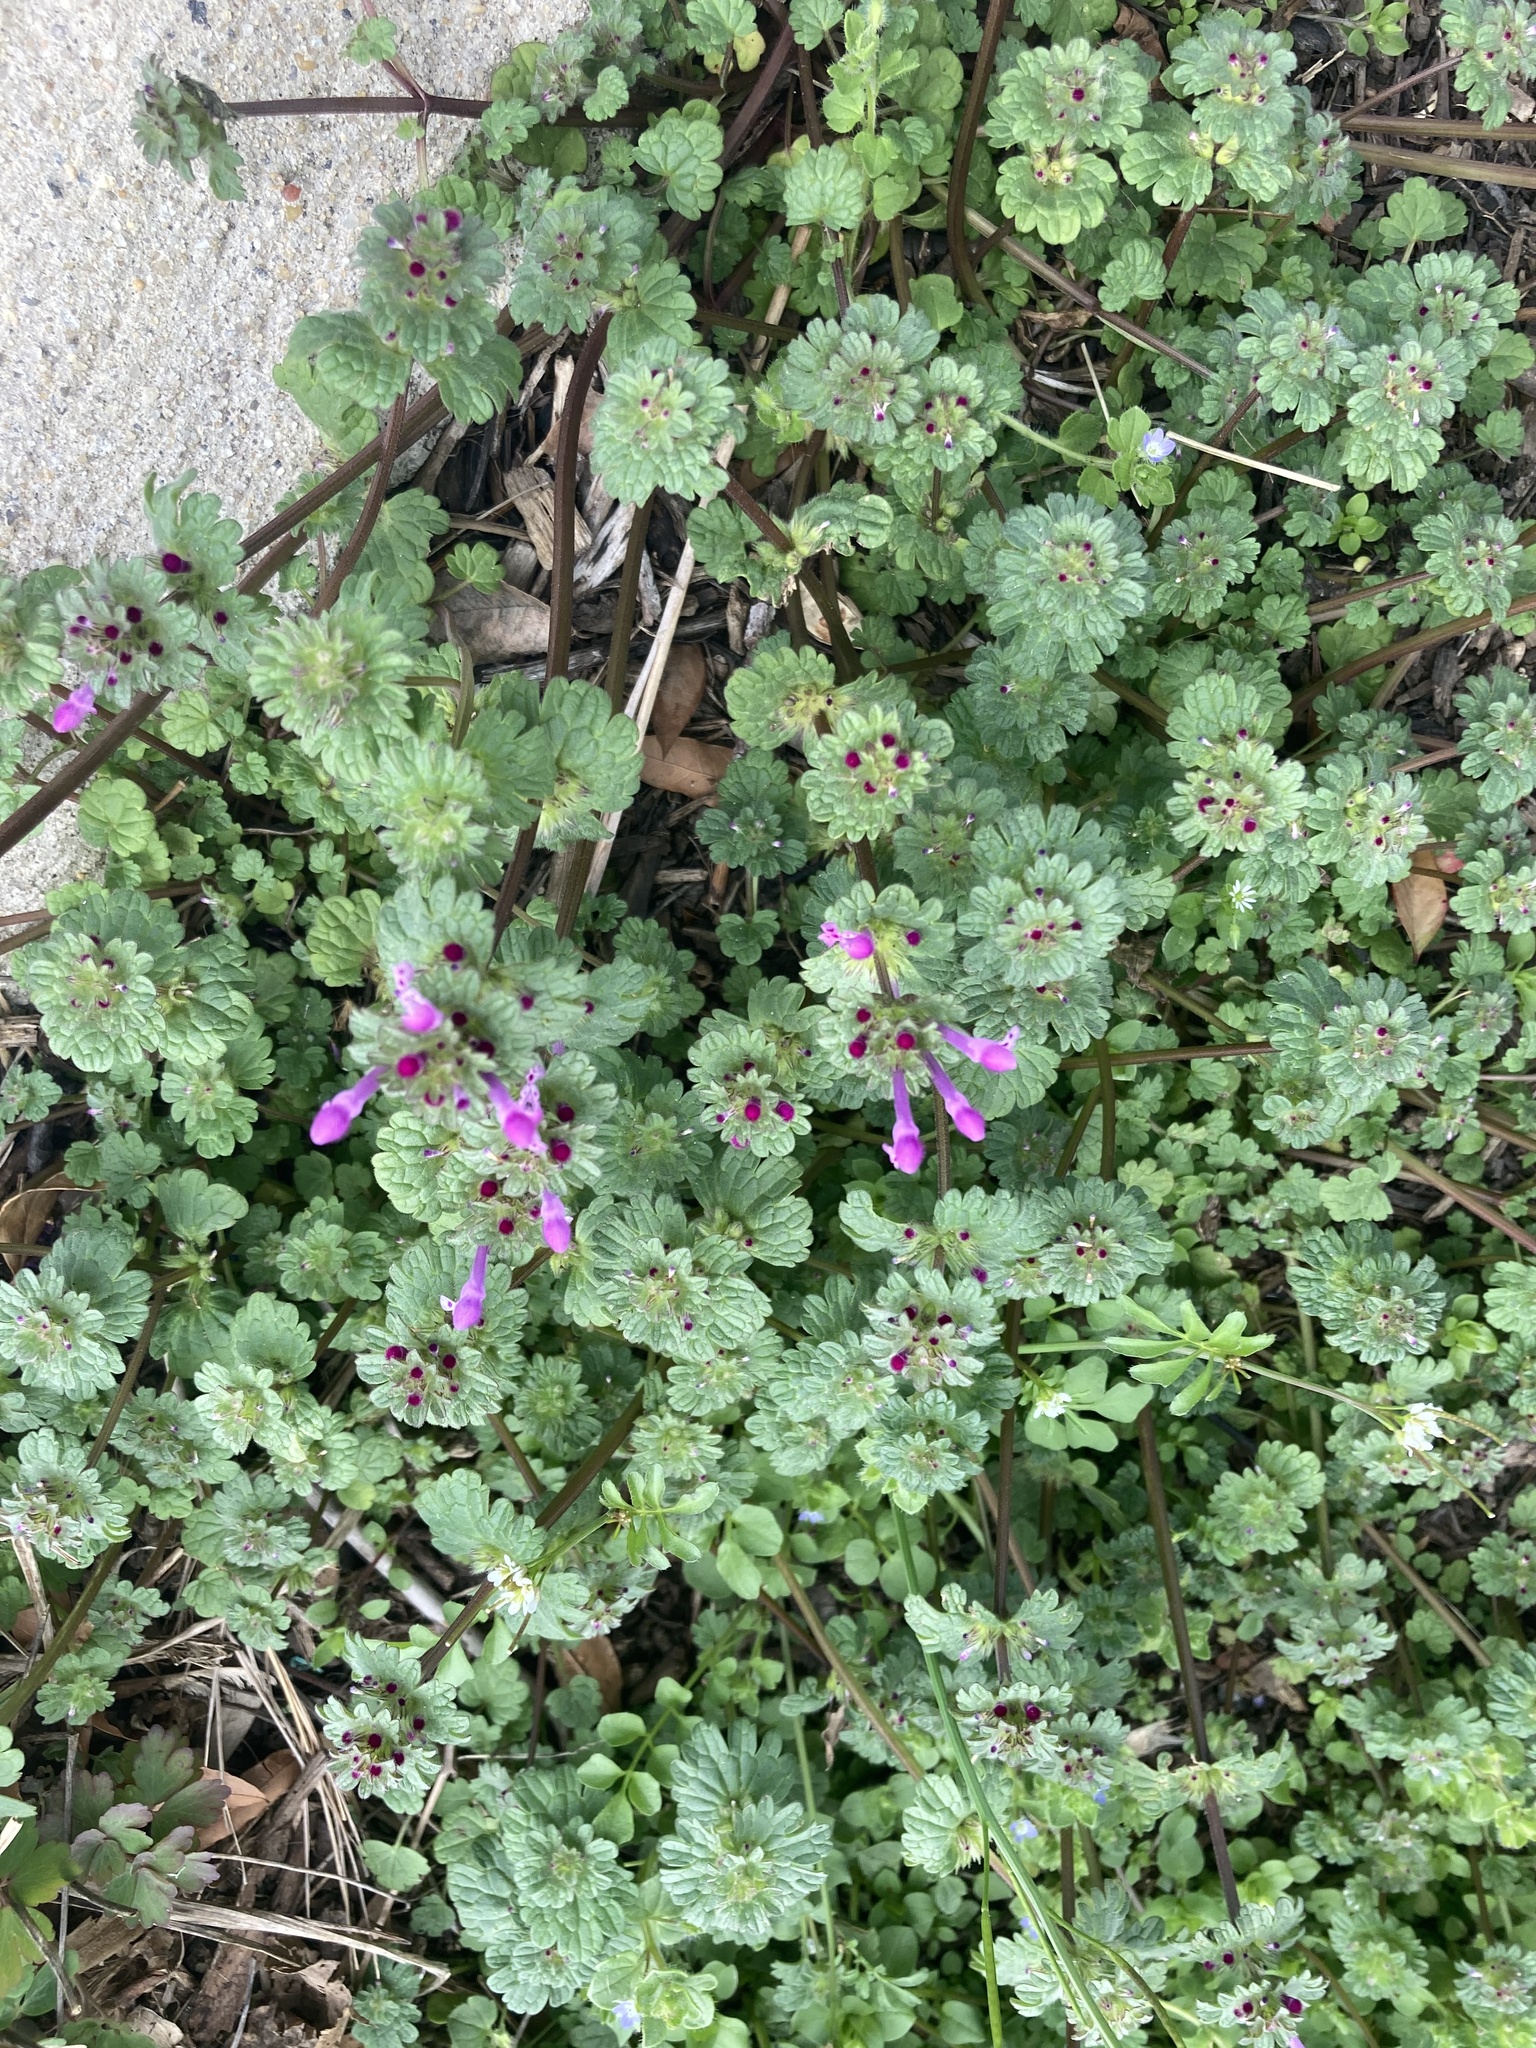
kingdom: Plantae
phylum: Tracheophyta
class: Magnoliopsida
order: Lamiales
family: Lamiaceae
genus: Lamium
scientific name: Lamium amplexicaule
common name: Henbit dead-nettle
